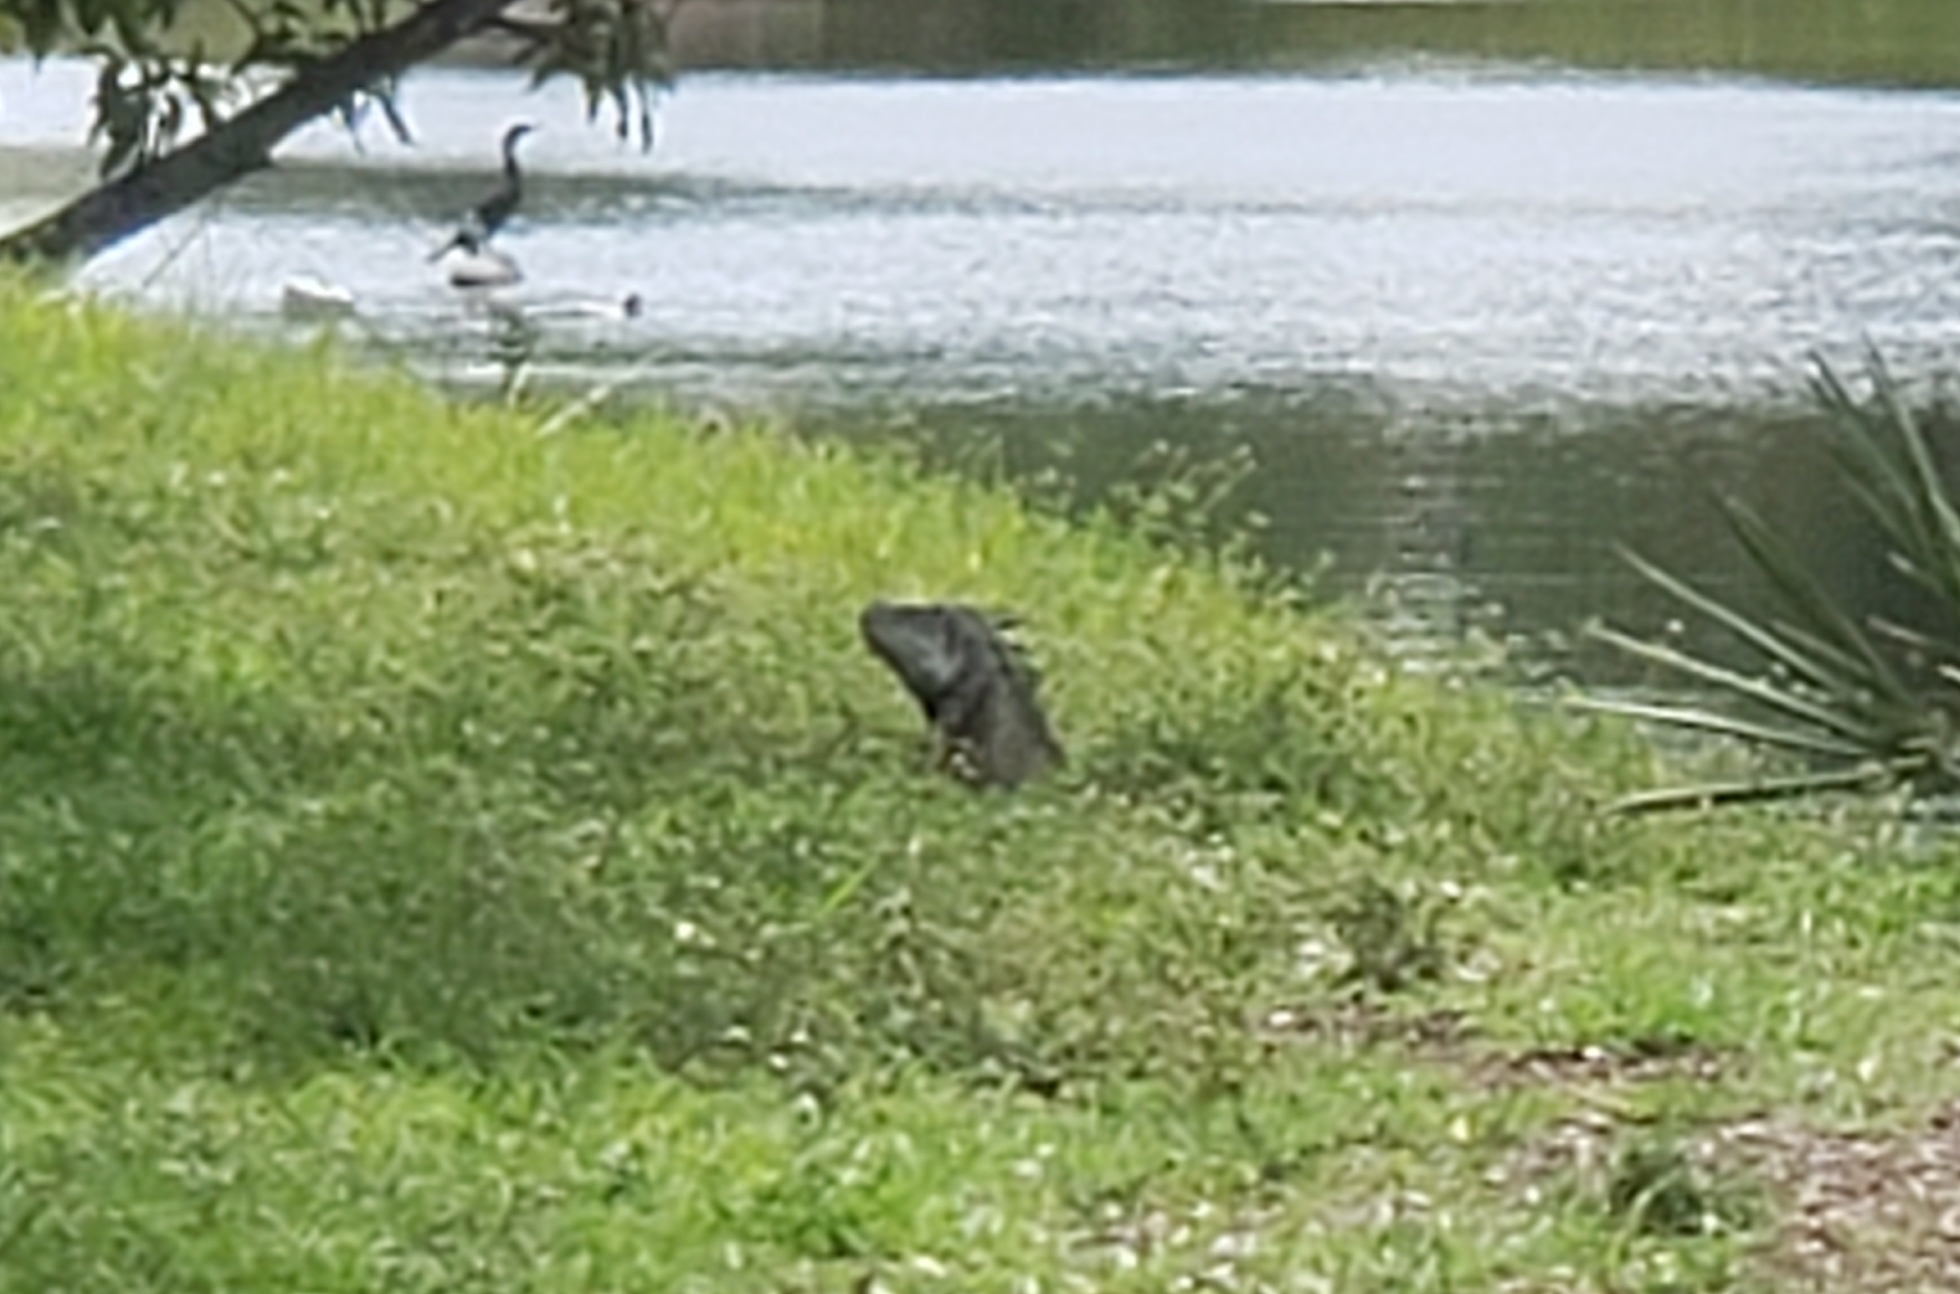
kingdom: Animalia
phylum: Chordata
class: Squamata
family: Iguanidae
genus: Iguana
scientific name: Iguana iguana
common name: Green iguana
